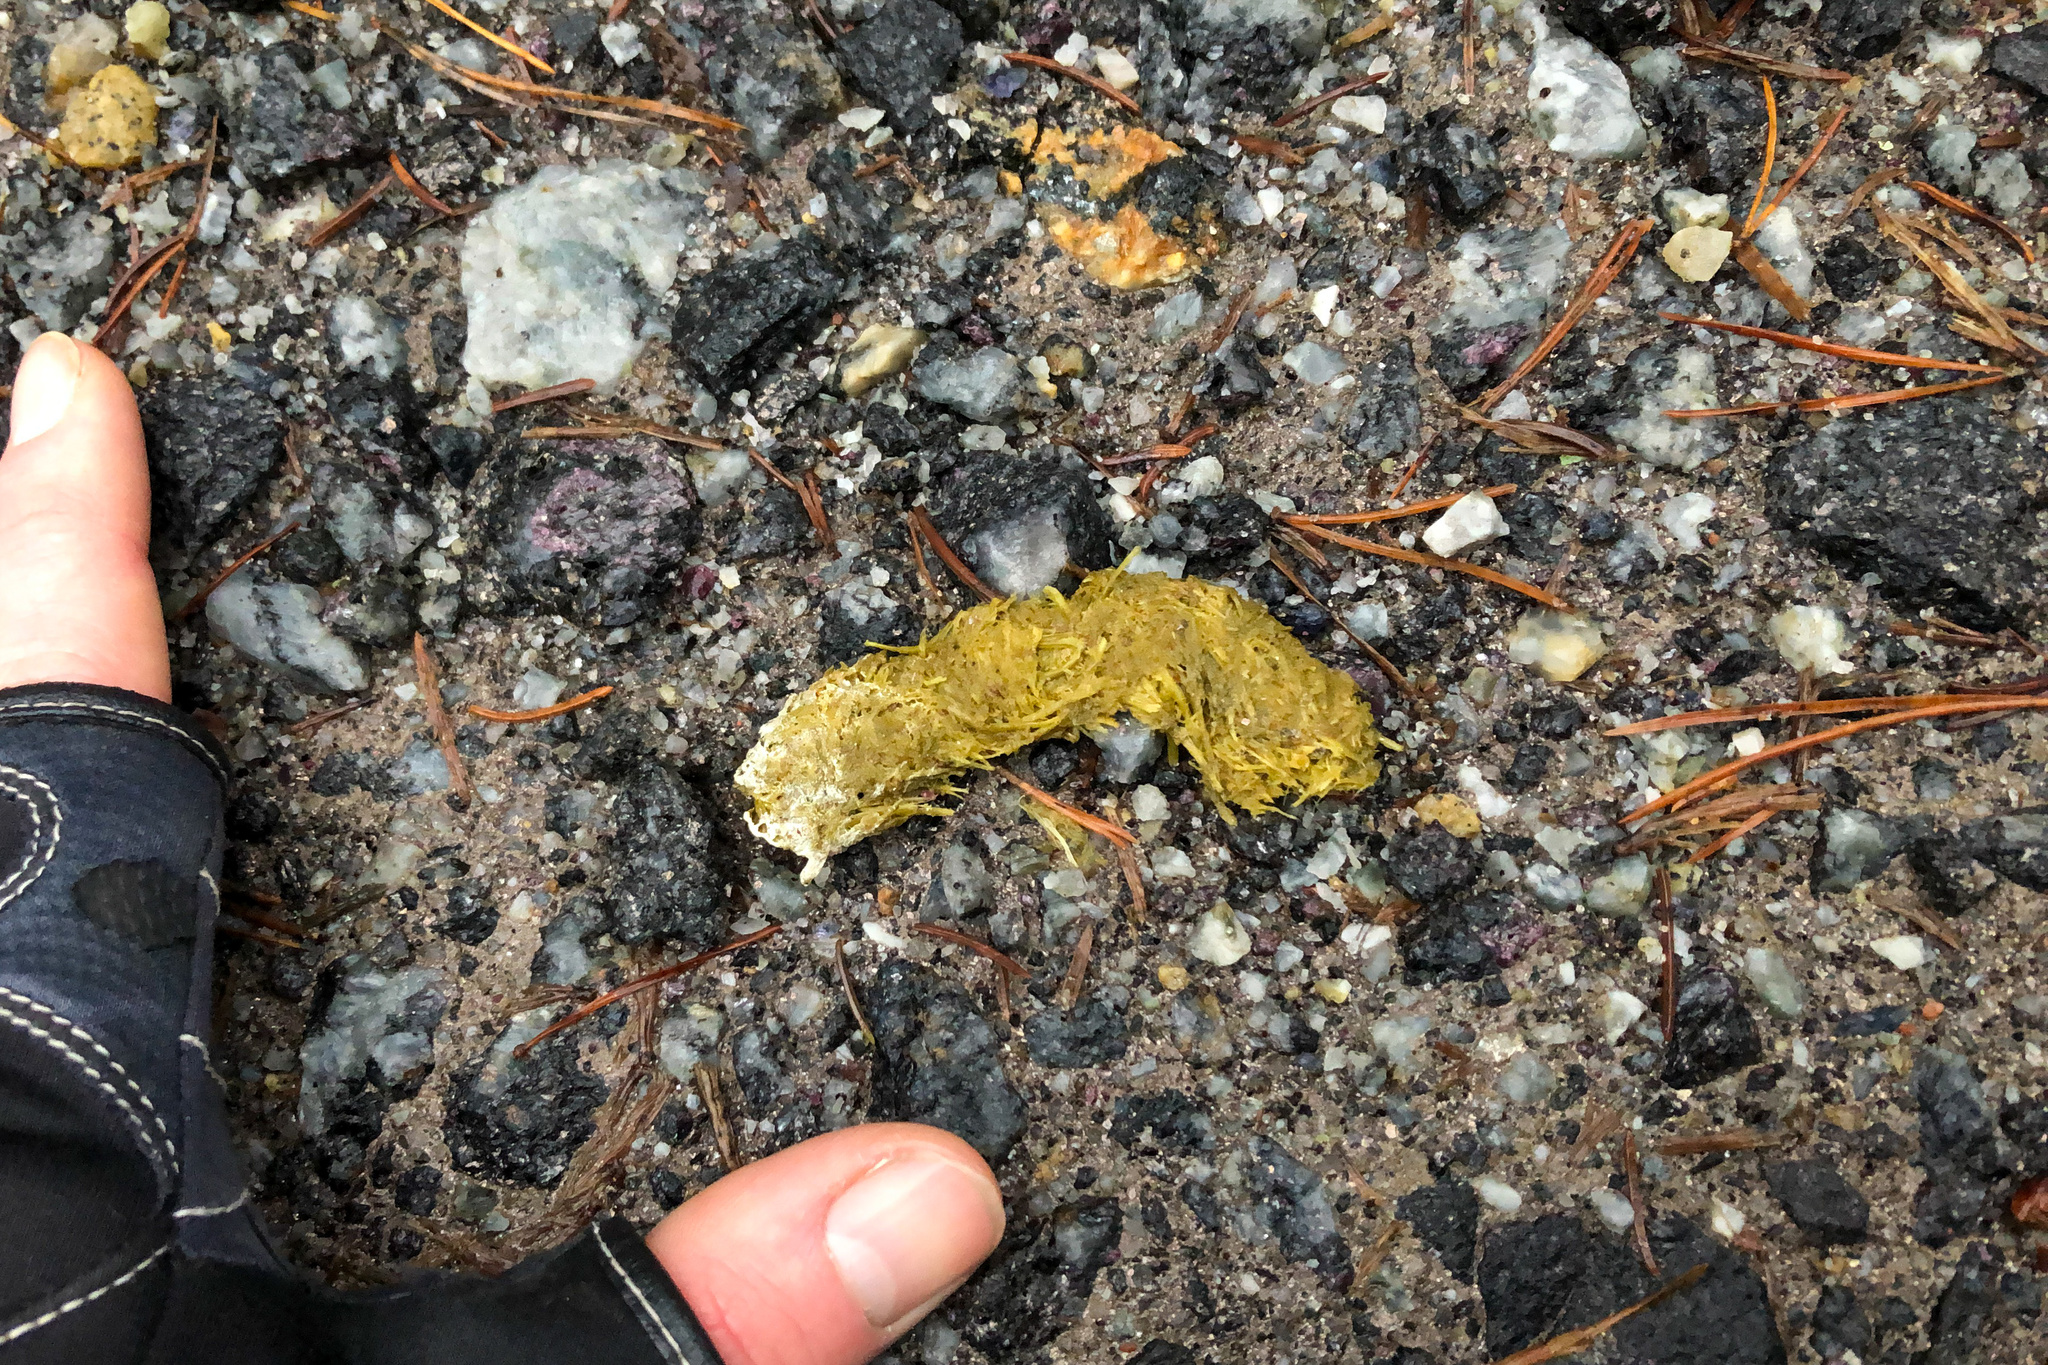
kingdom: Animalia
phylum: Chordata
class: Aves
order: Galliformes
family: Phasianidae
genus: Tetrao
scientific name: Tetrao urogallus
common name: Western capercaillie
